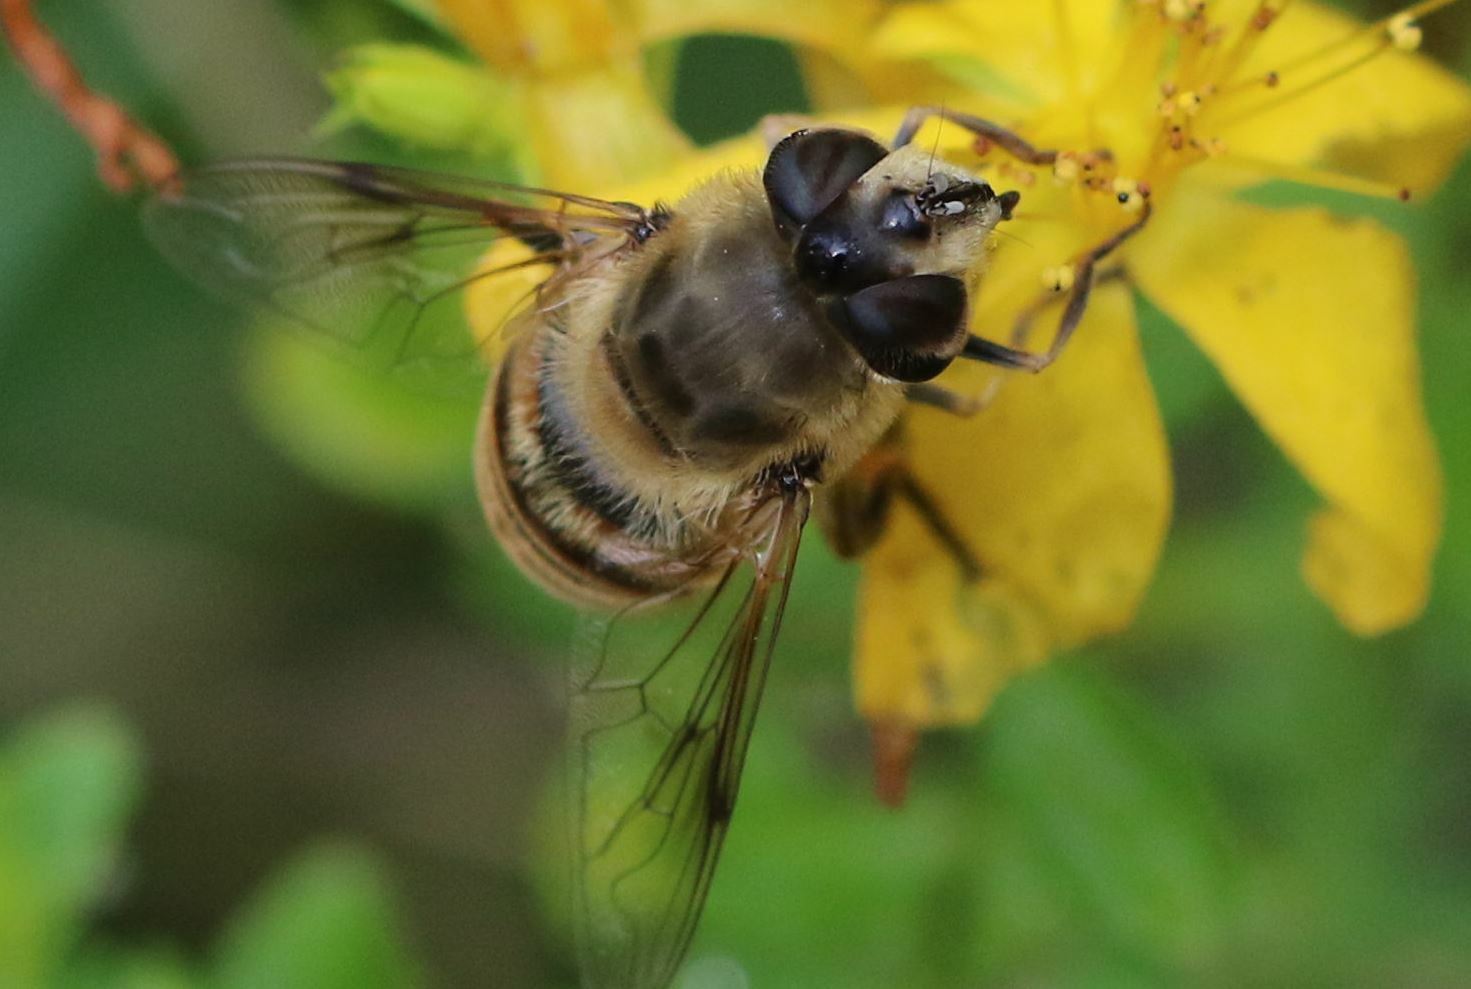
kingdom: Animalia
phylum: Arthropoda
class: Insecta
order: Diptera
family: Syrphidae
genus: Eristalis
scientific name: Eristalis tenax
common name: Drone fly
